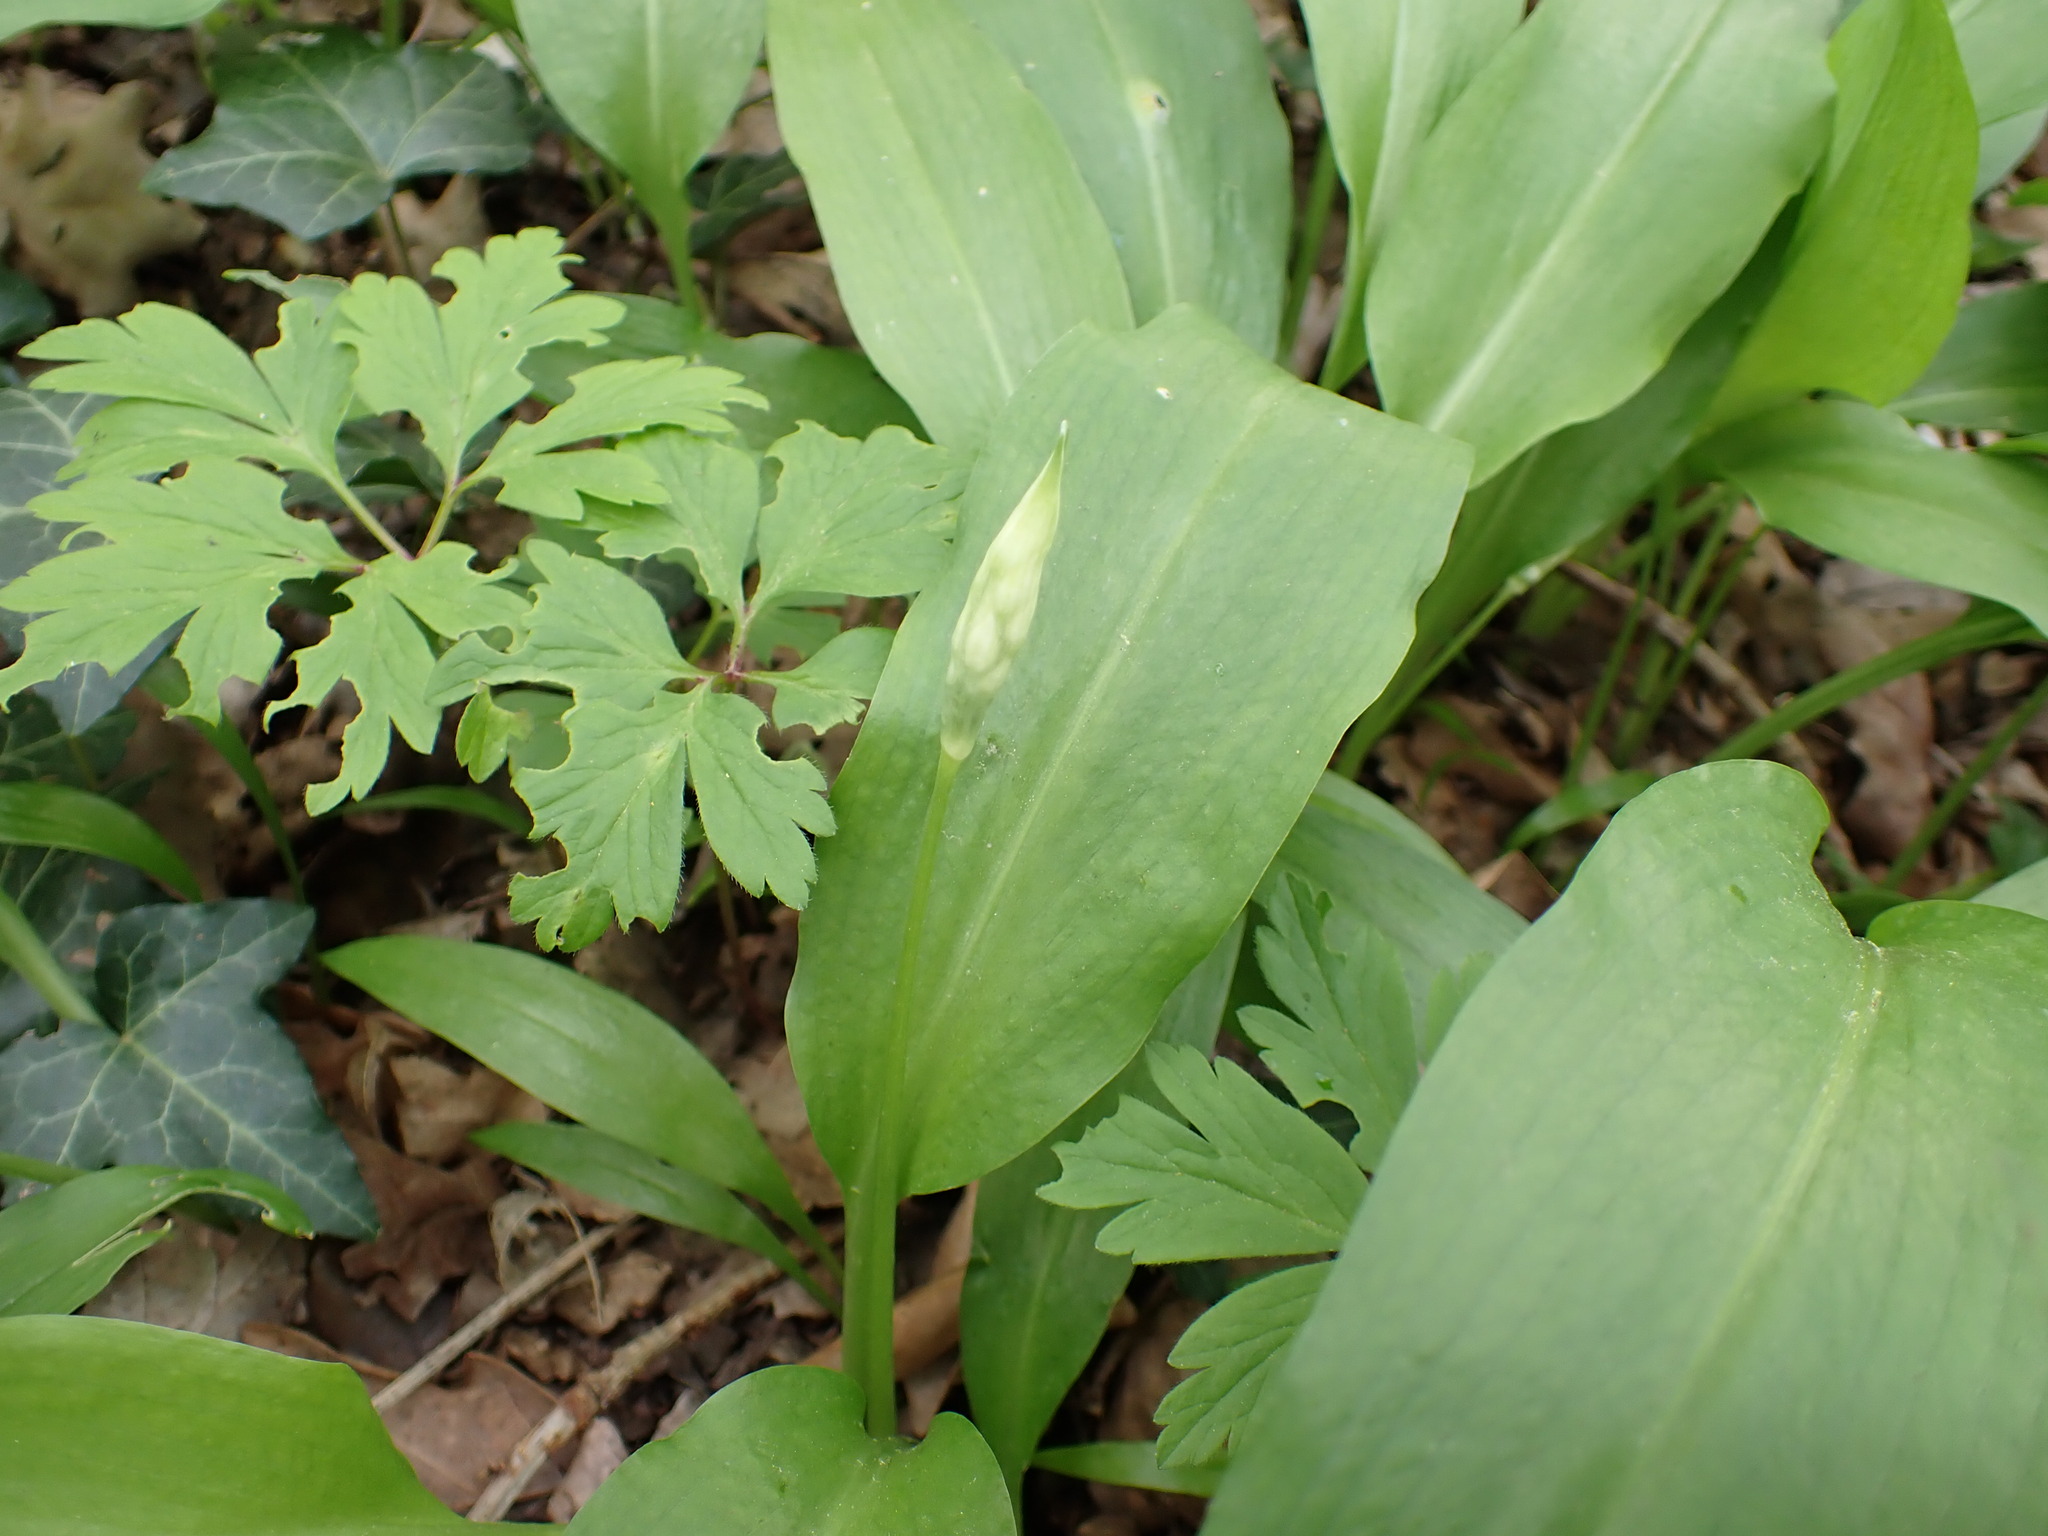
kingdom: Plantae
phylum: Tracheophyta
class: Liliopsida
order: Asparagales
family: Amaryllidaceae
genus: Allium
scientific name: Allium ursinum
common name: Ramsons
